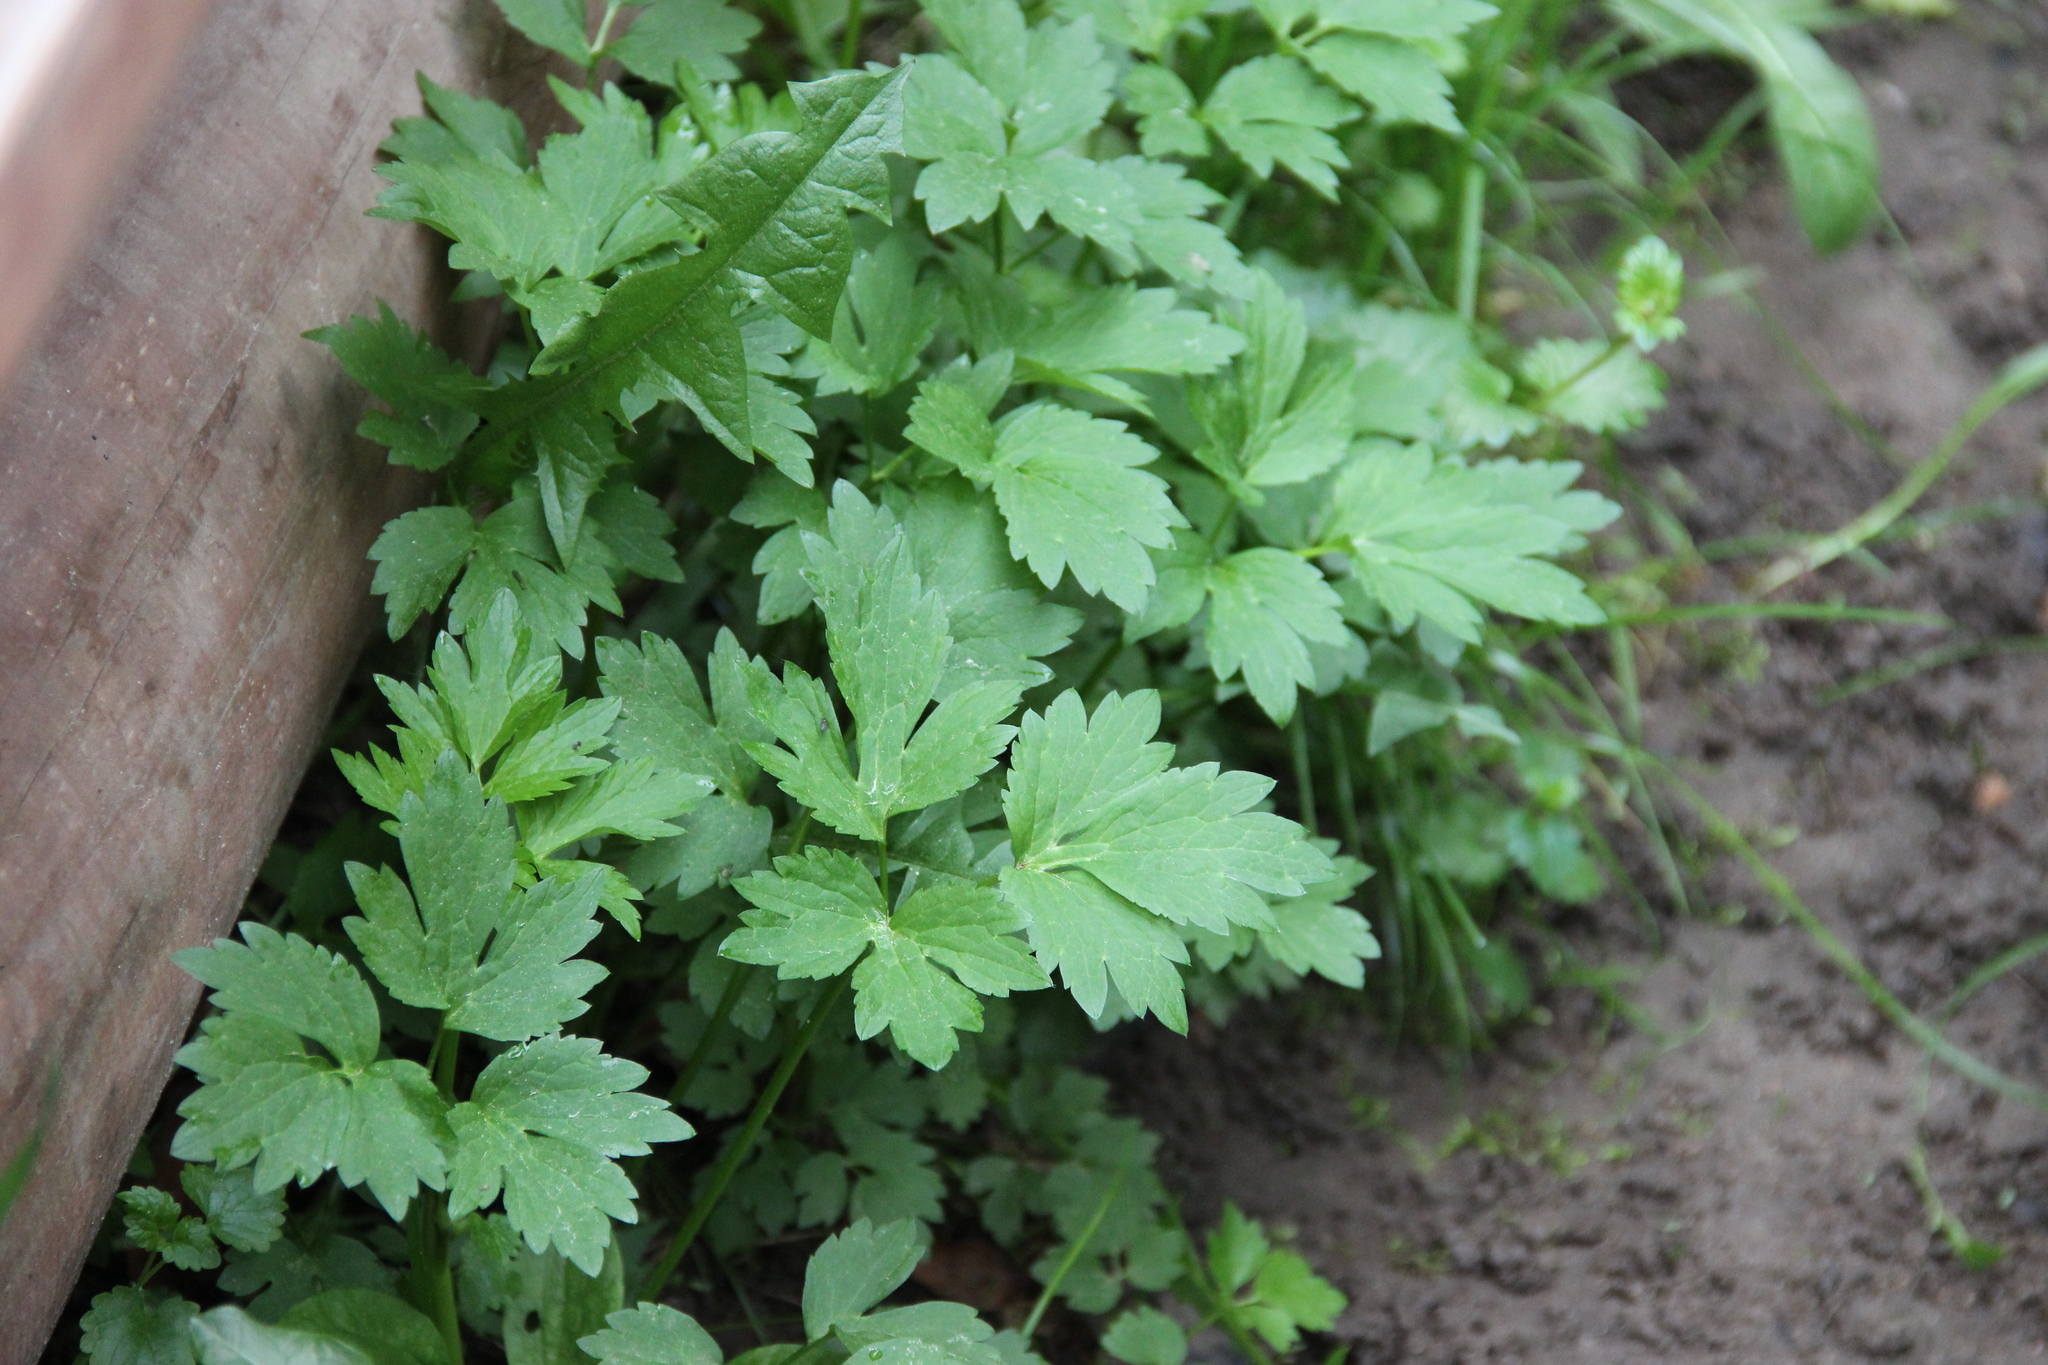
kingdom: Plantae
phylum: Tracheophyta
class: Magnoliopsida
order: Ranunculales
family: Ranunculaceae
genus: Ranunculus
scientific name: Ranunculus repens
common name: Creeping buttercup
